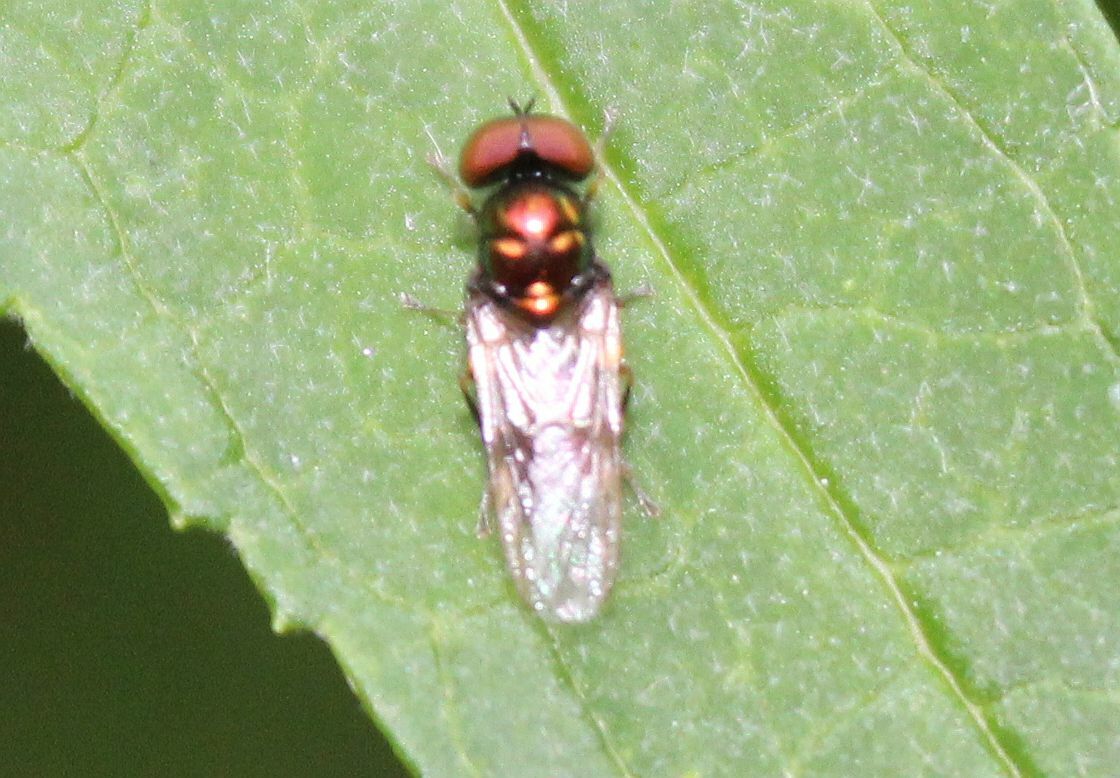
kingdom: Animalia
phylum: Arthropoda
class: Insecta
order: Diptera
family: Stratiomyidae
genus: Microchrysa
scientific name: Microchrysa polita
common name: Black-horned gem
